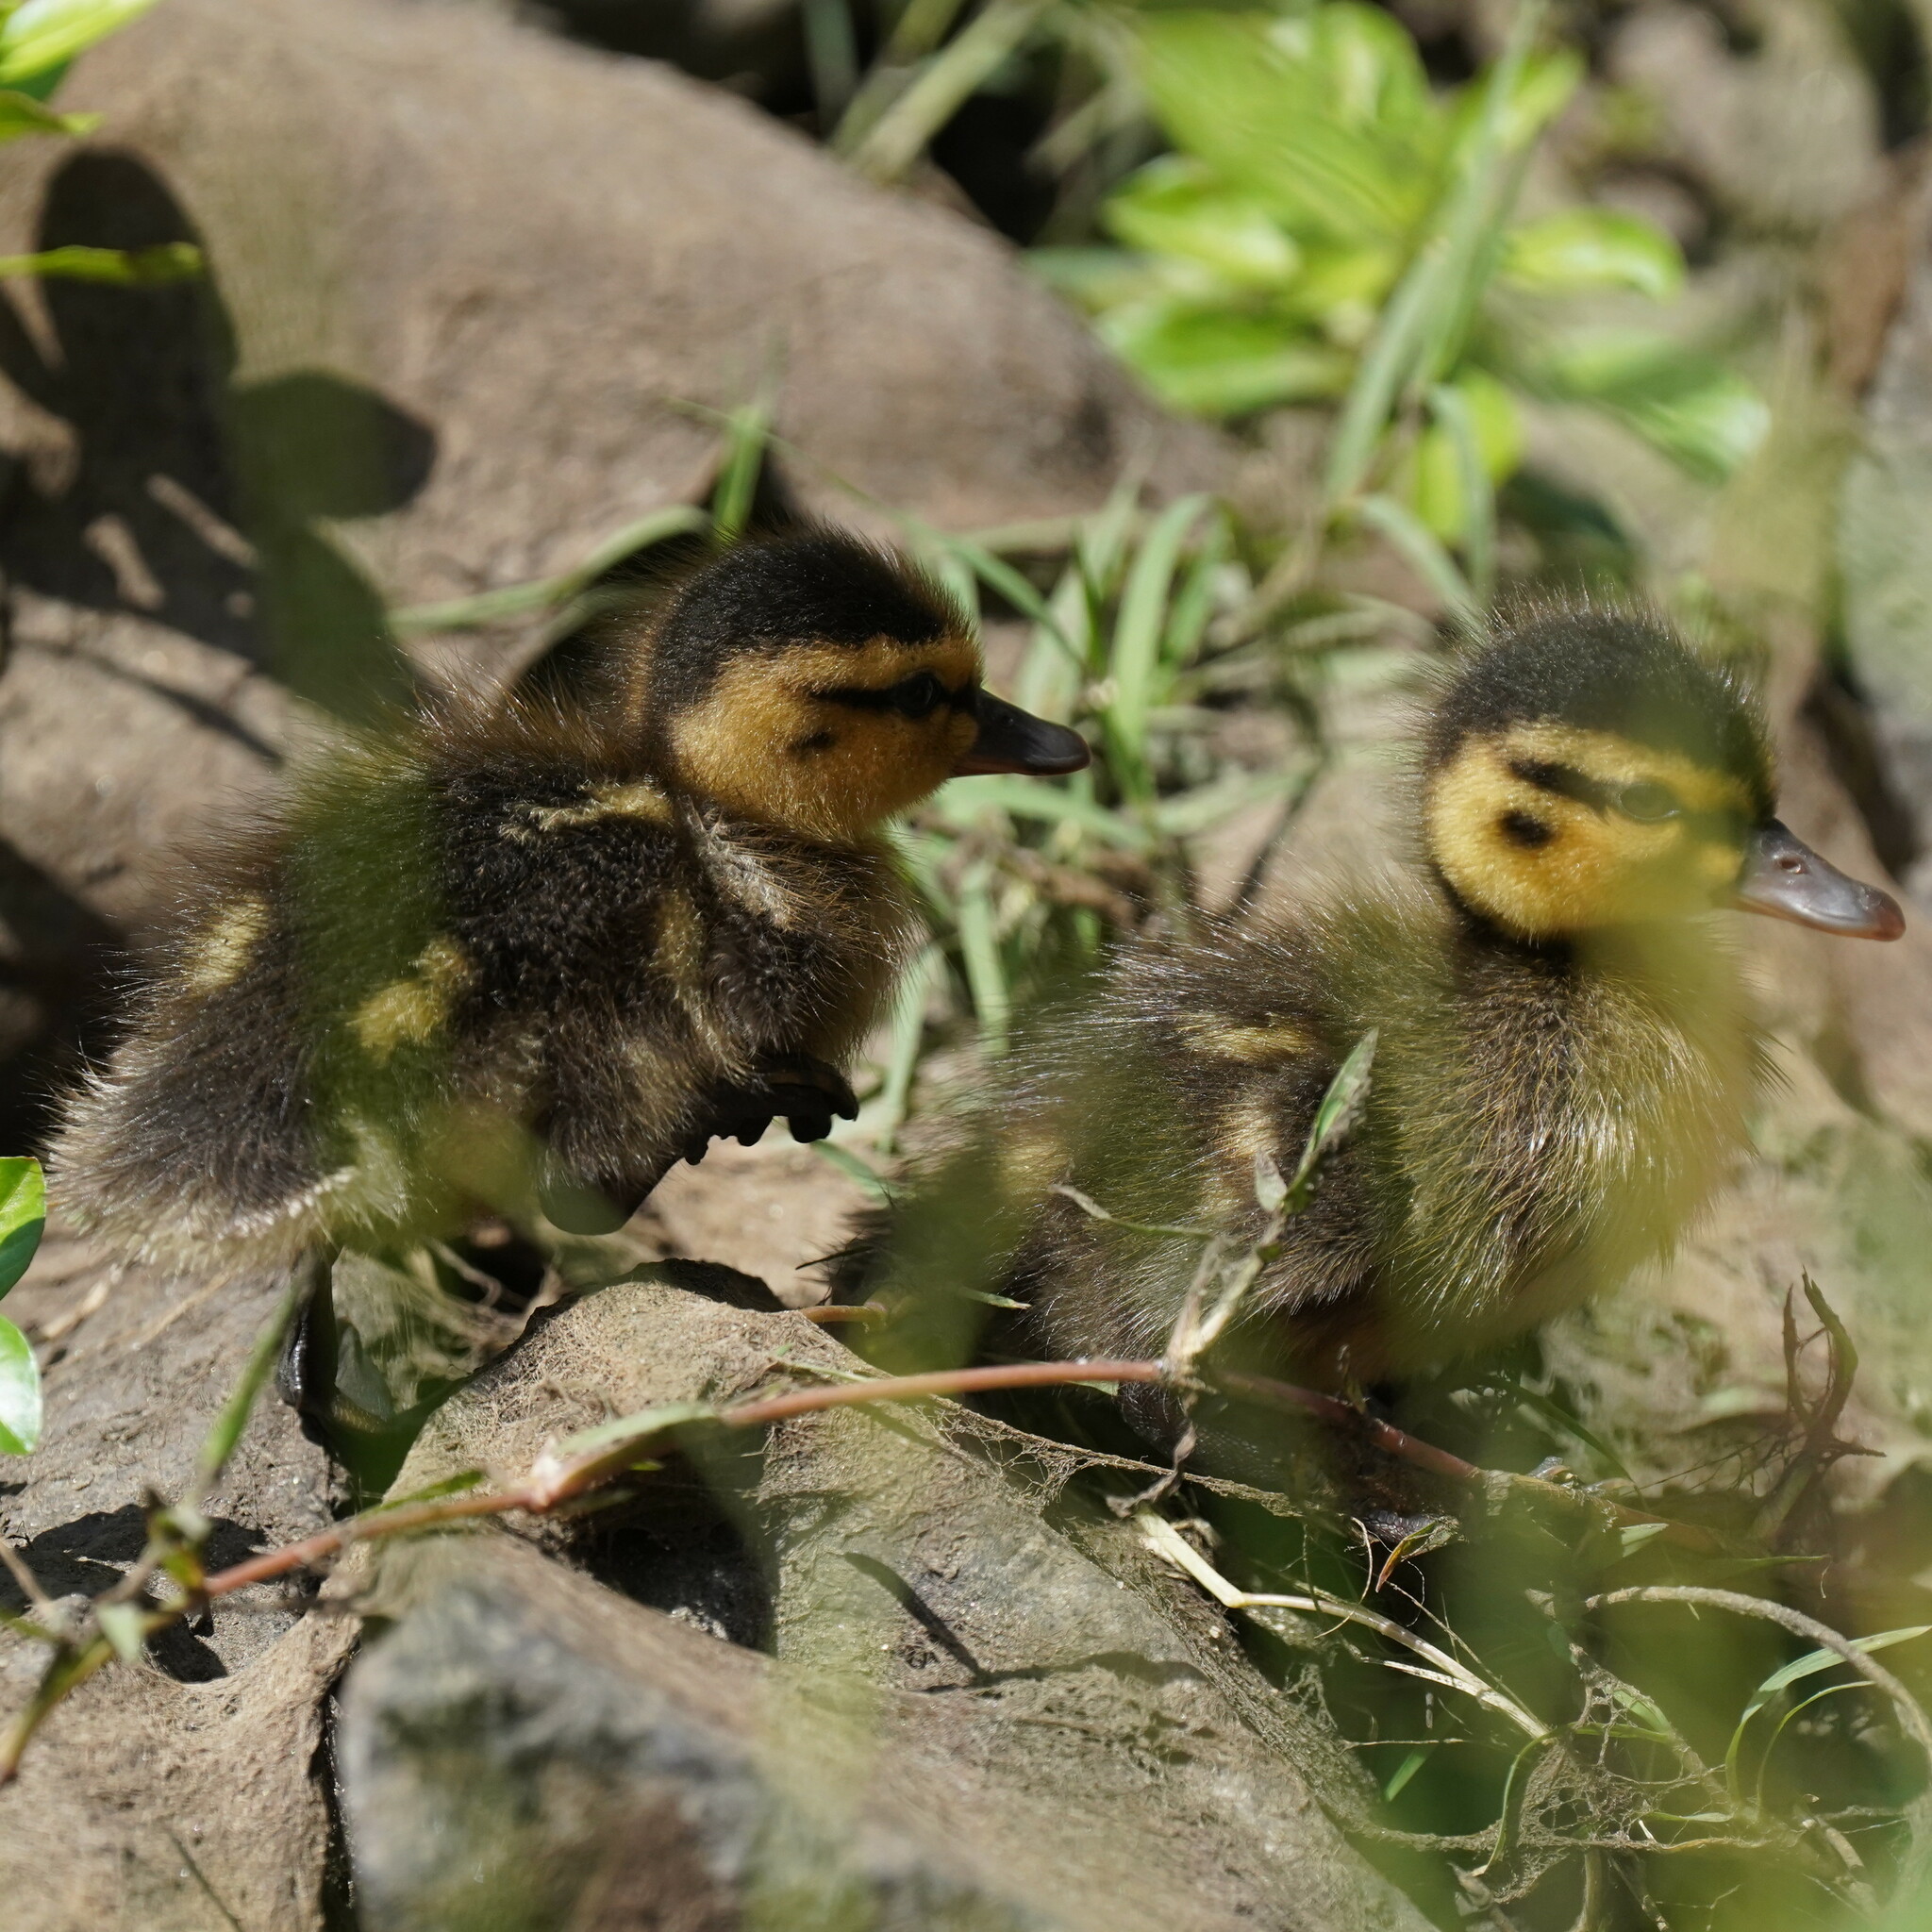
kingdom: Animalia
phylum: Chordata
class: Aves
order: Anseriformes
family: Anatidae
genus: Anas
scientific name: Anas platyrhynchos
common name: Mallard
